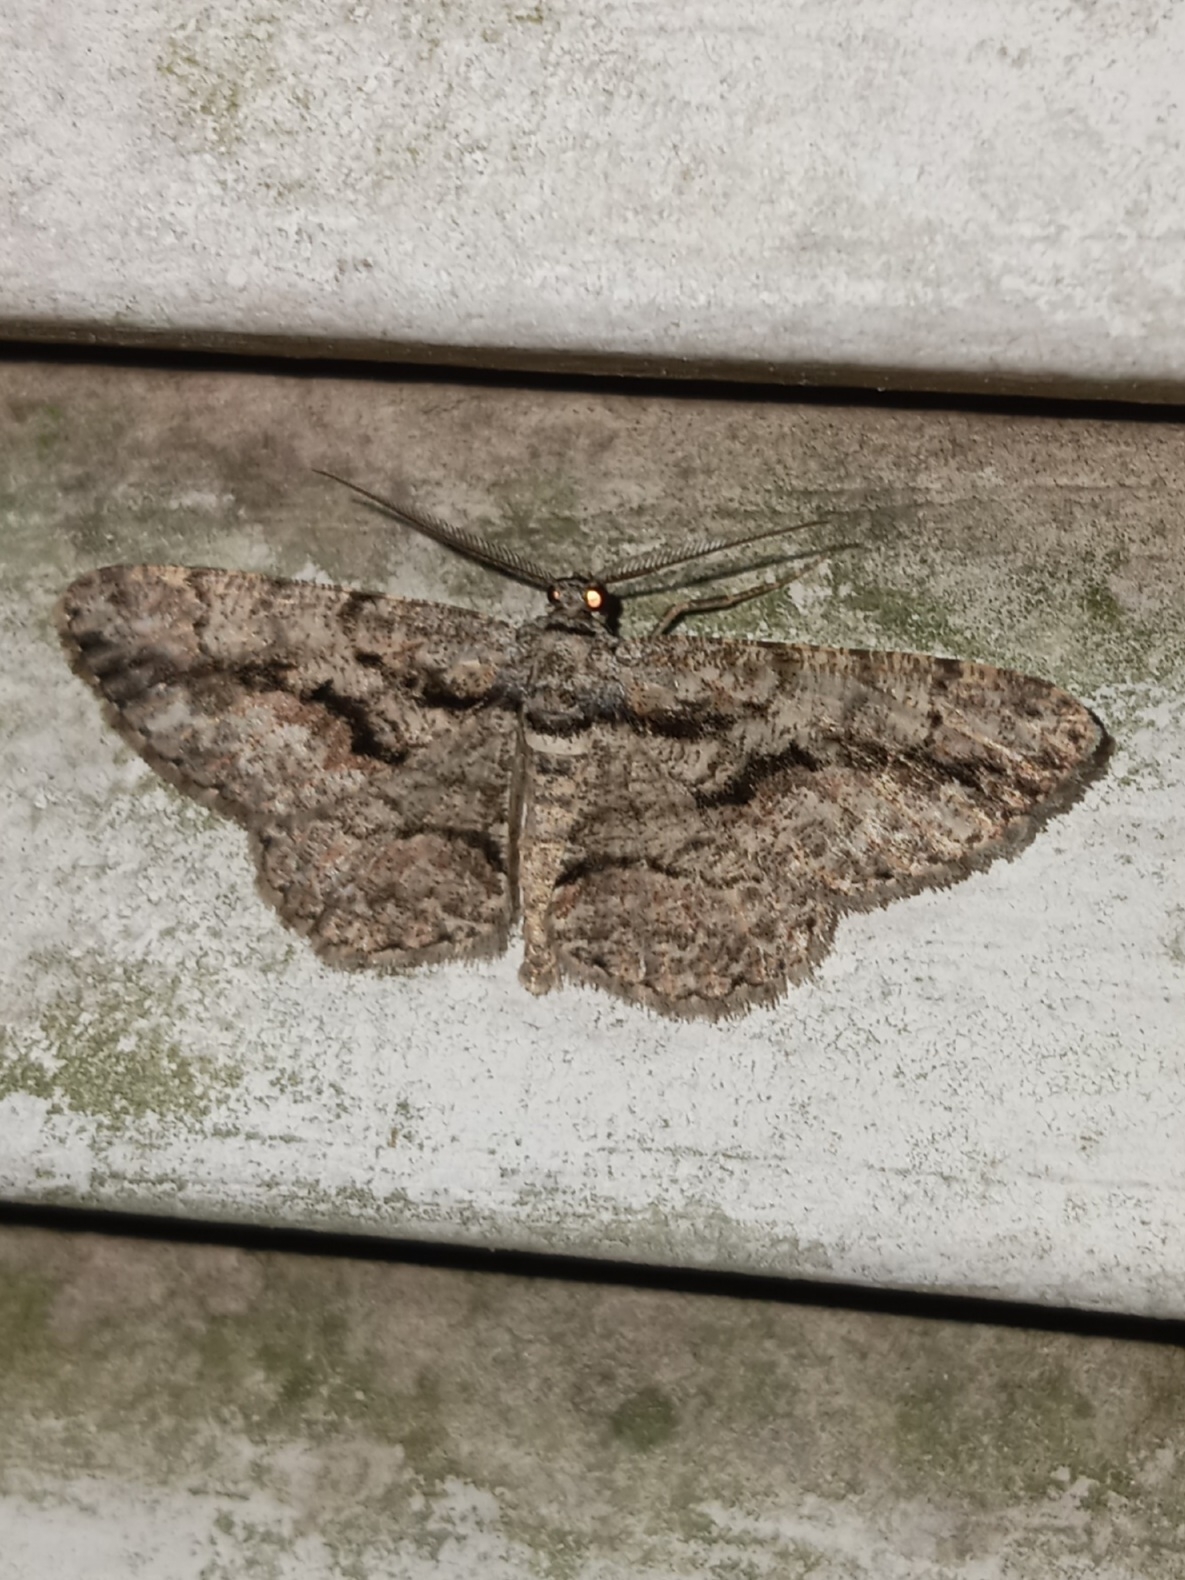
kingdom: Animalia
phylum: Arthropoda
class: Insecta
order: Lepidoptera
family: Geometridae
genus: Anavitrinella
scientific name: Anavitrinella pampinaria
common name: Common gray
